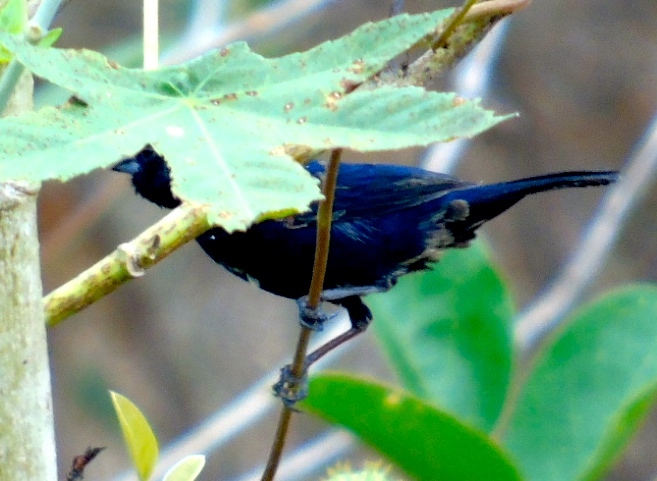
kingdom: Animalia
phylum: Chordata
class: Aves
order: Passeriformes
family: Thraupidae
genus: Volatinia
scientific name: Volatinia jacarina
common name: Blue-black grassquit
